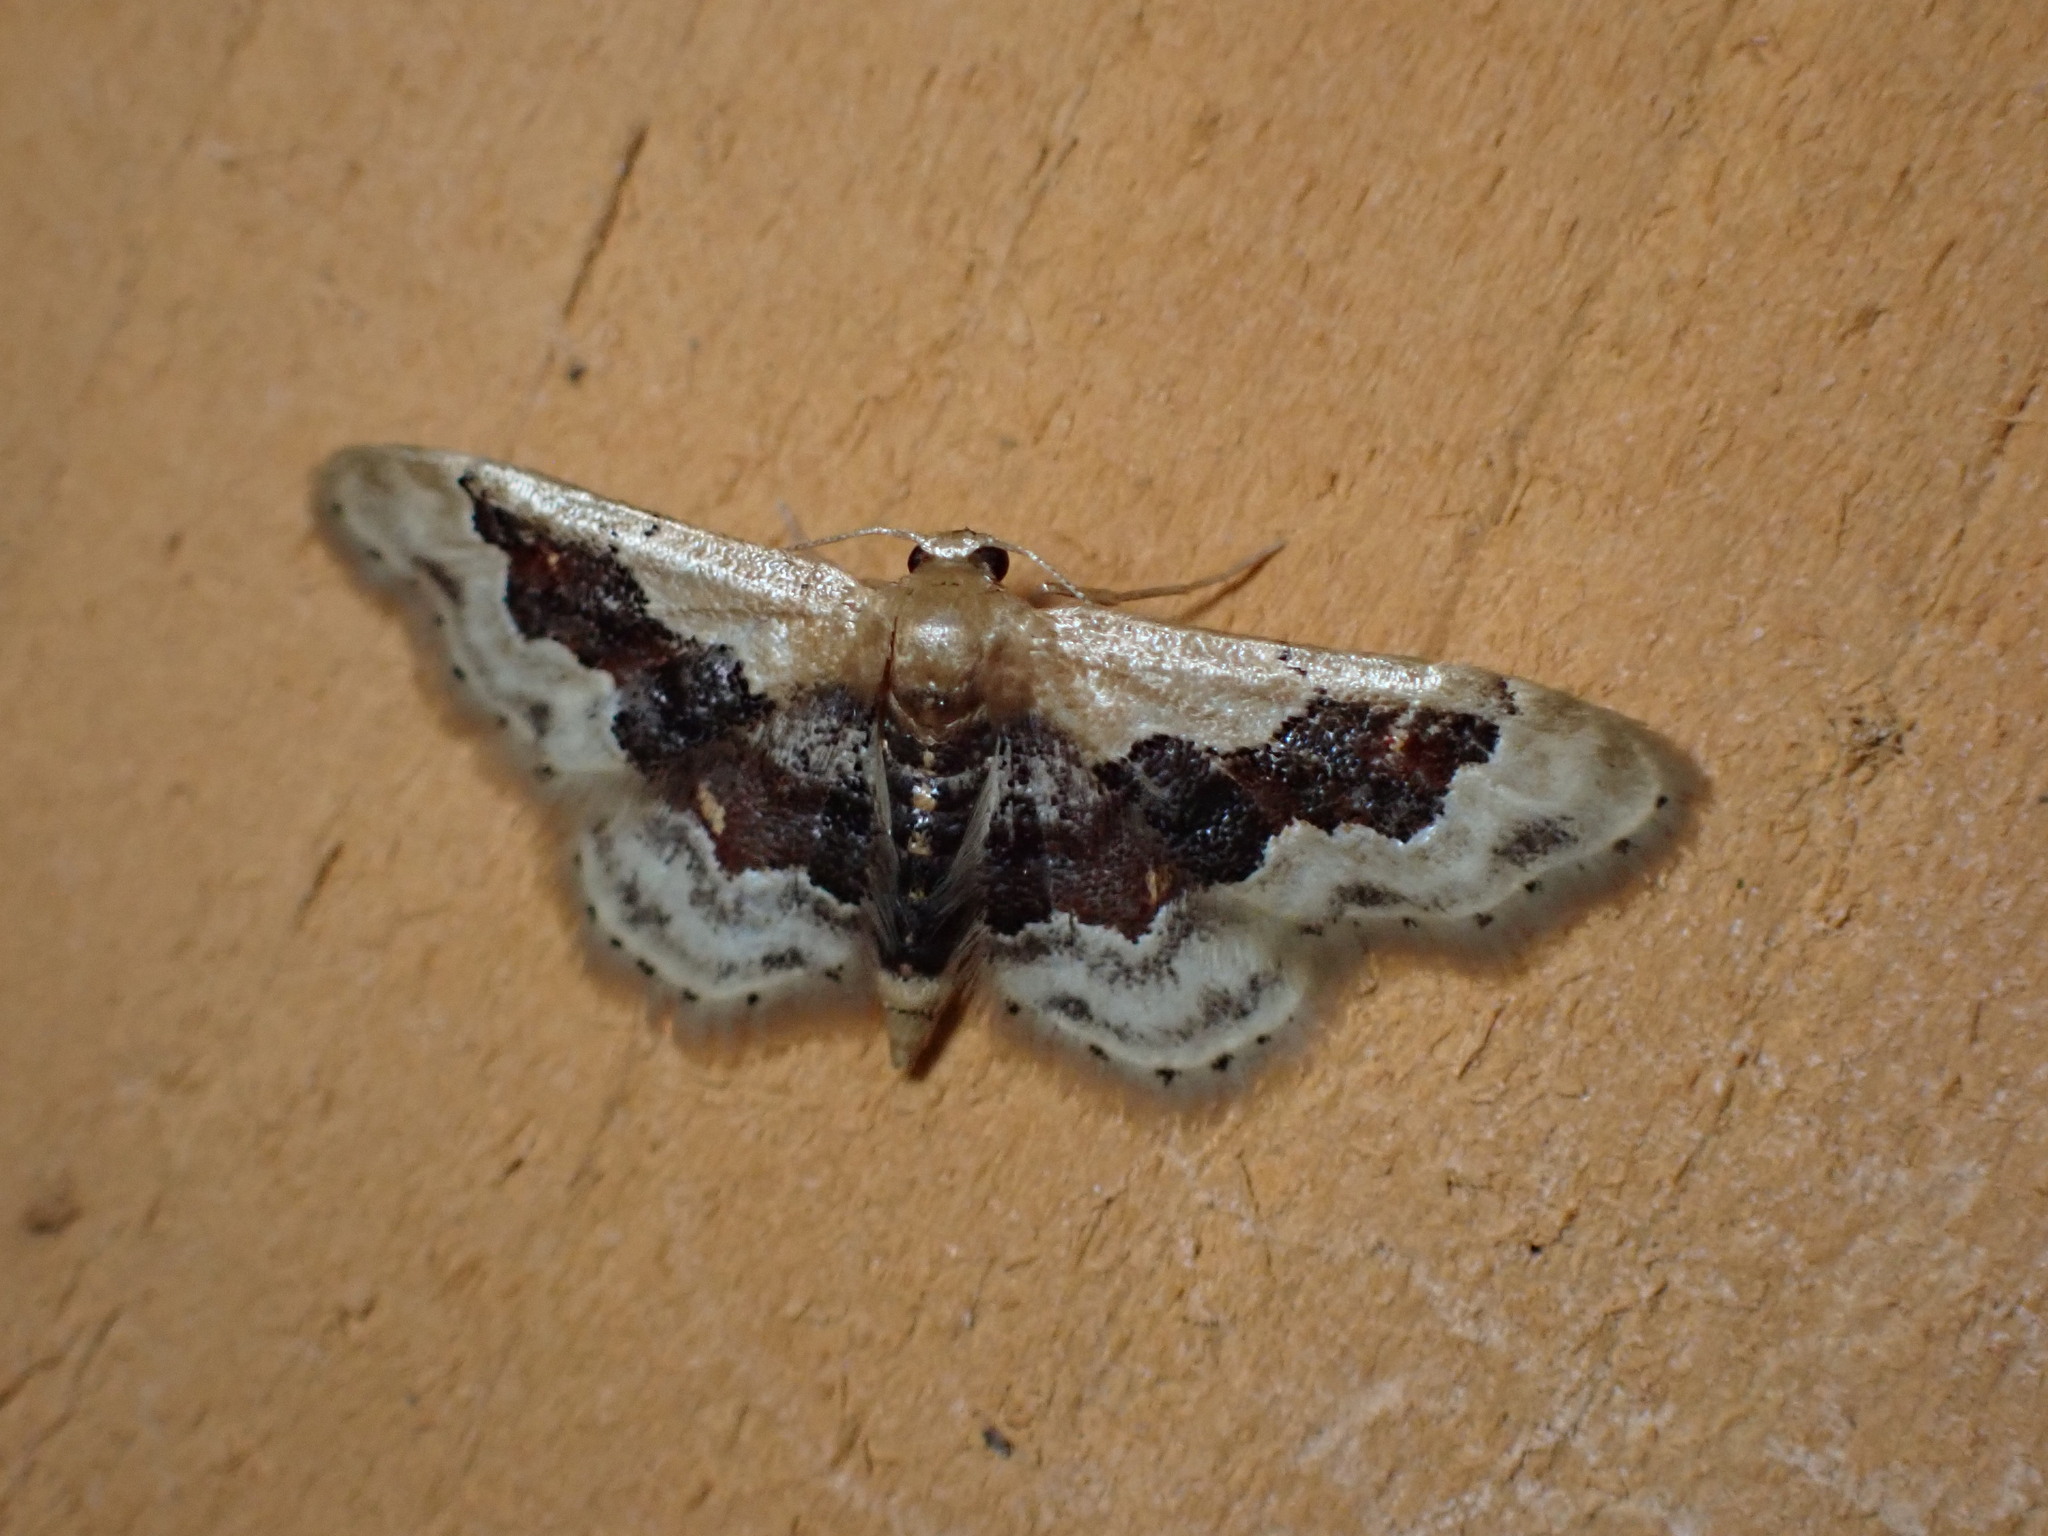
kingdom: Animalia
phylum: Arthropoda
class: Insecta
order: Lepidoptera
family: Geometridae
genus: Idaea
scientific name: Idaea gemmata
